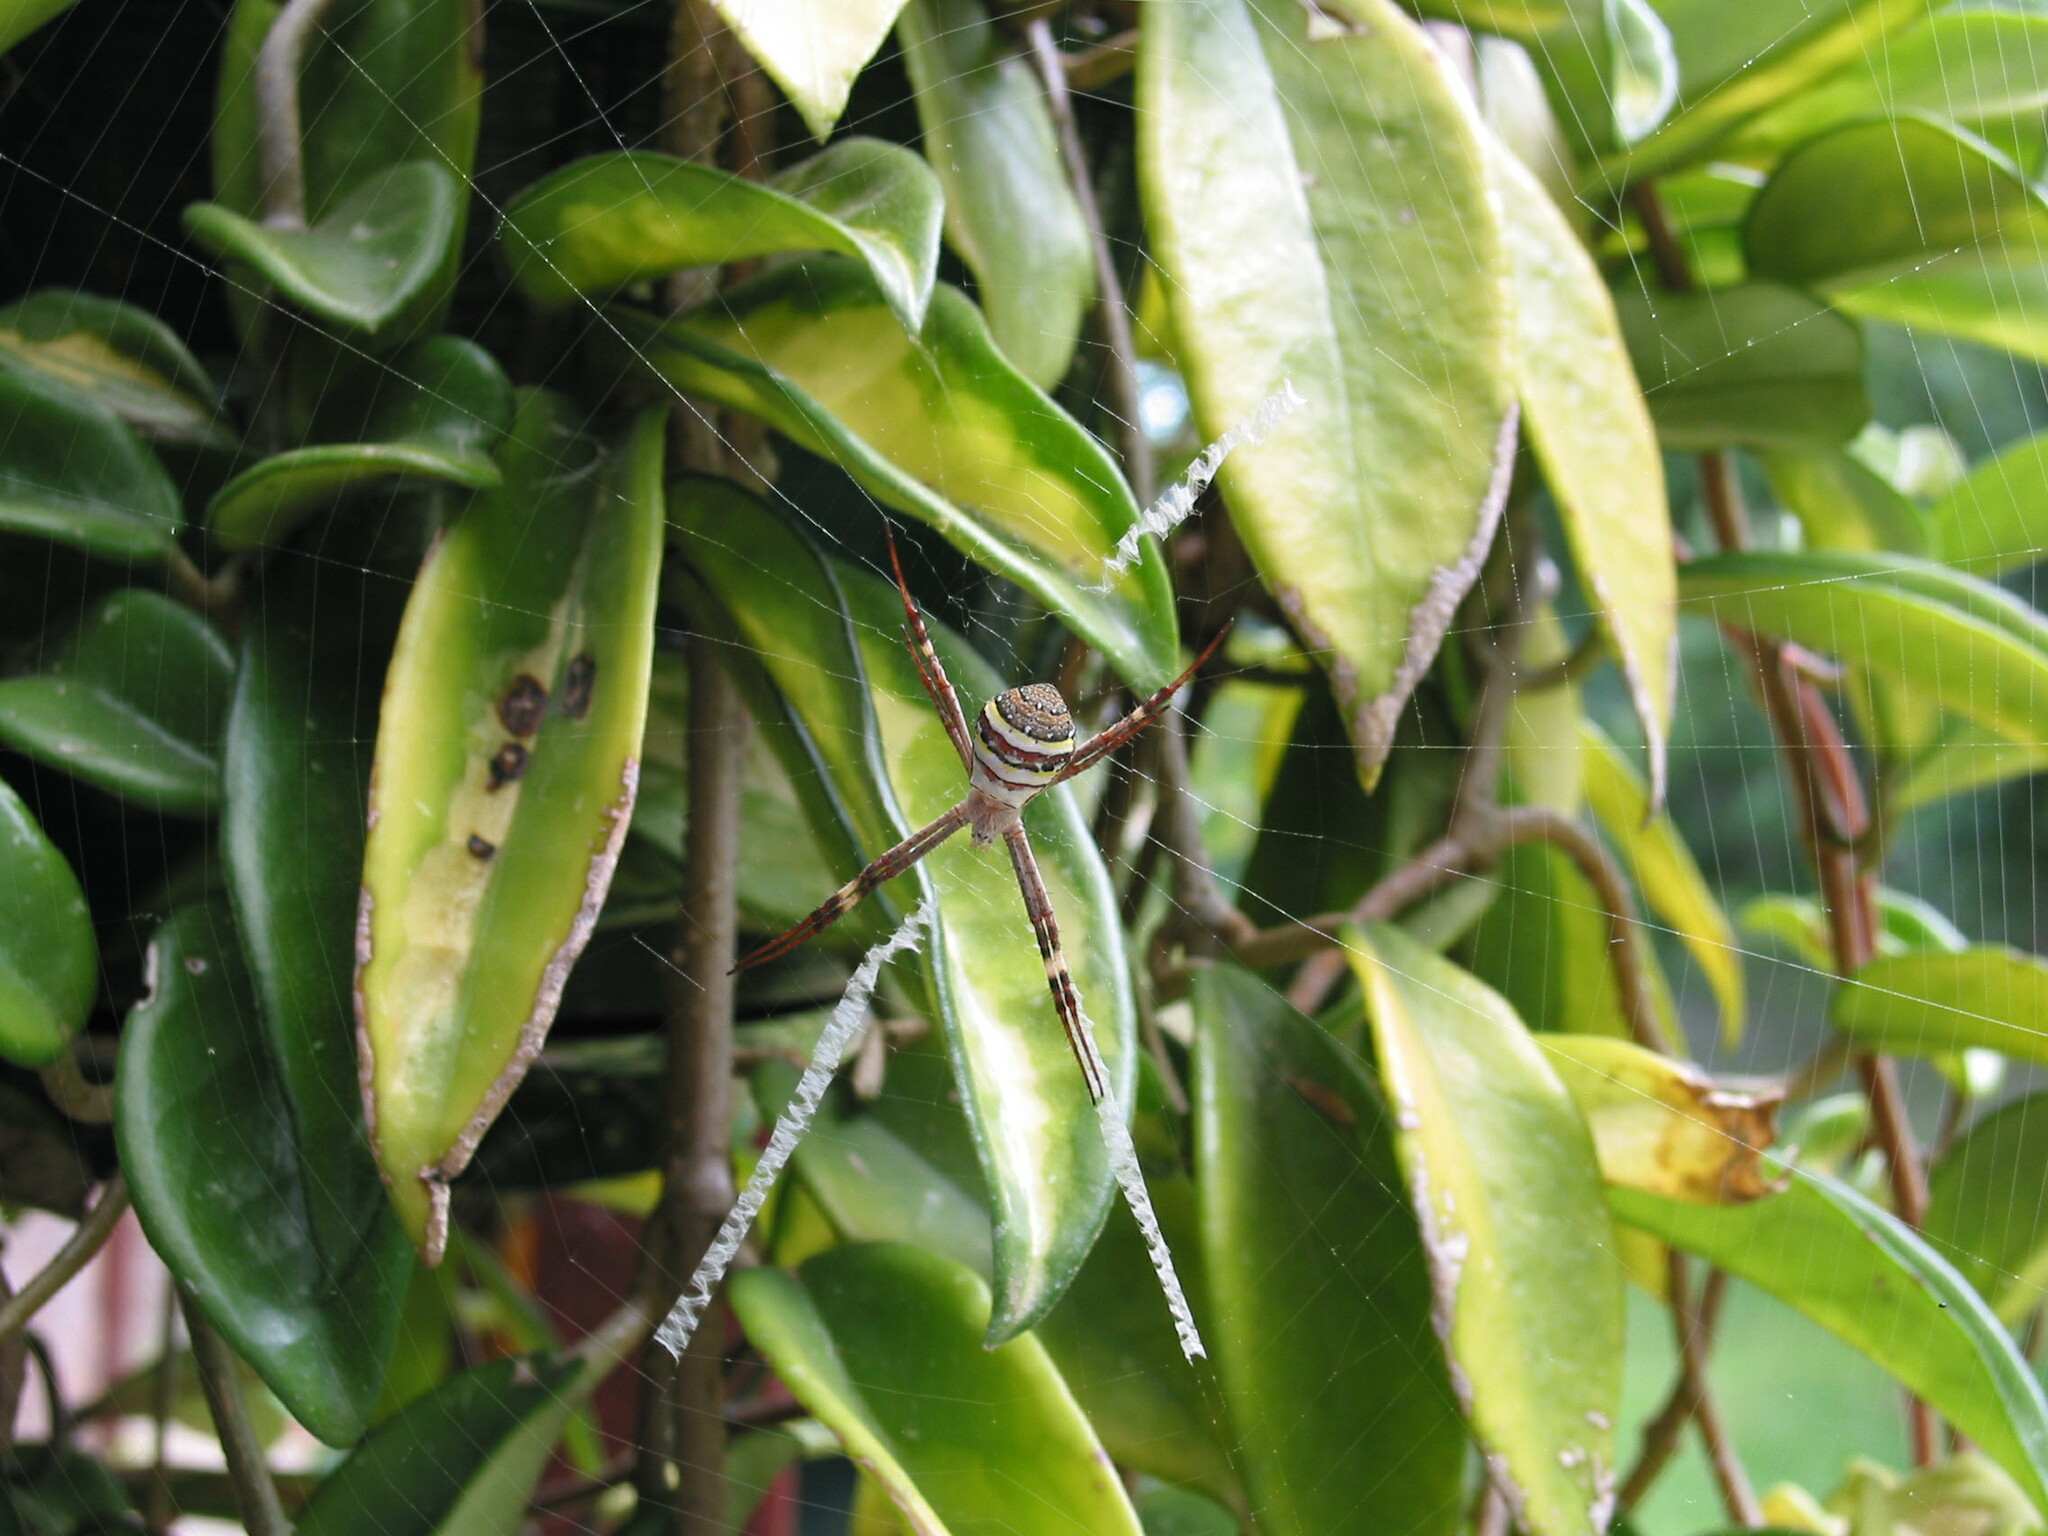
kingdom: Animalia
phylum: Arthropoda
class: Arachnida
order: Araneae
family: Araneidae
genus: Argiope
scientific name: Argiope keyserlingi
